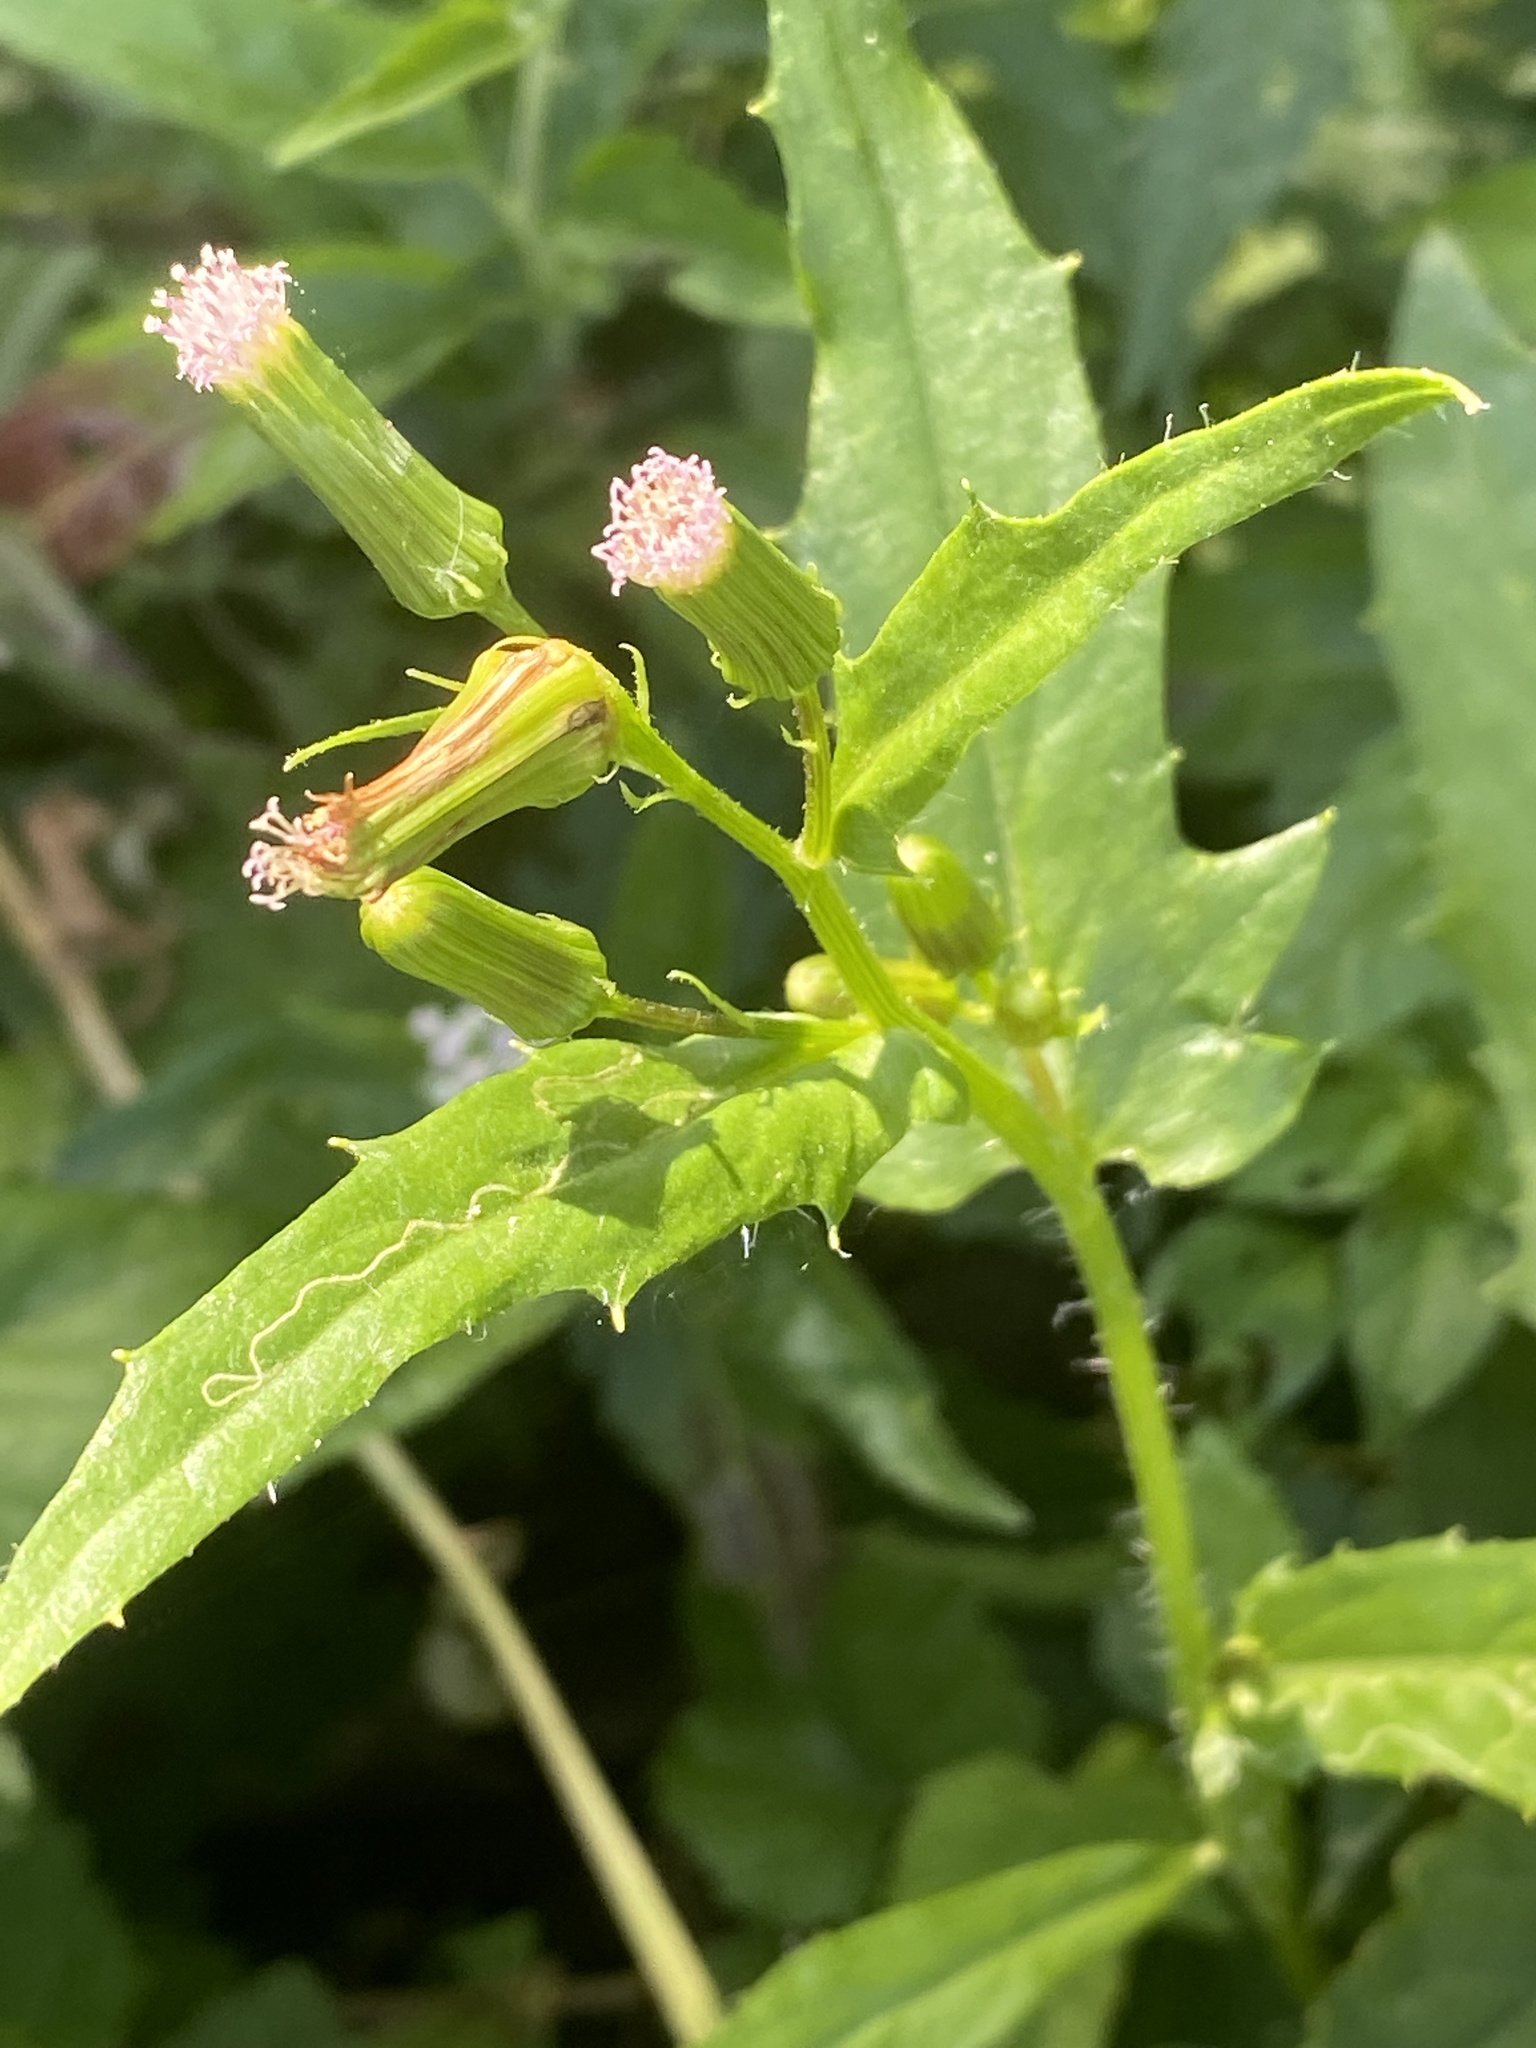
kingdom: Plantae
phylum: Tracheophyta
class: Magnoliopsida
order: Asterales
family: Asteraceae
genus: Erechtites
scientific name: Erechtites hieraciifolius
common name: American burnweed
